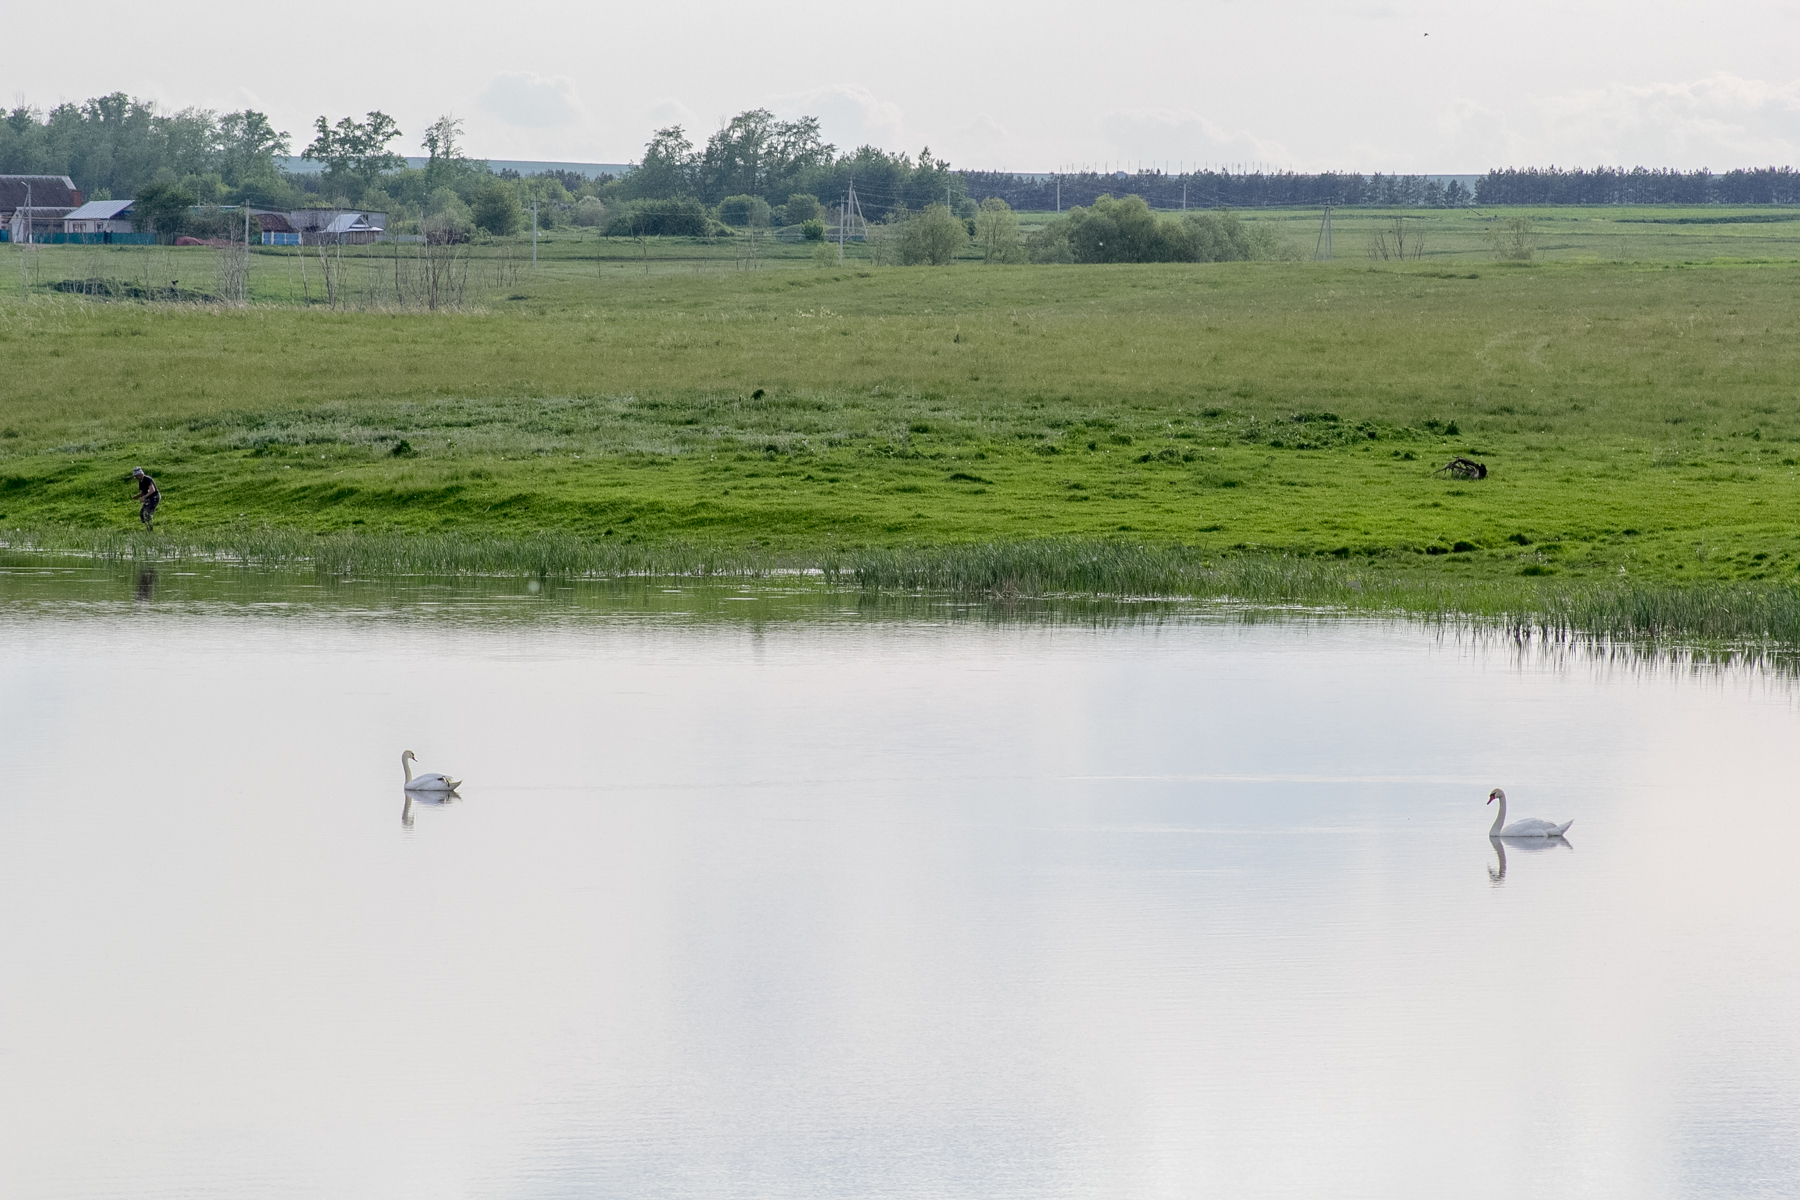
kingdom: Animalia
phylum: Chordata
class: Aves
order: Anseriformes
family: Anatidae
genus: Cygnus
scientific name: Cygnus olor
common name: Mute swan
